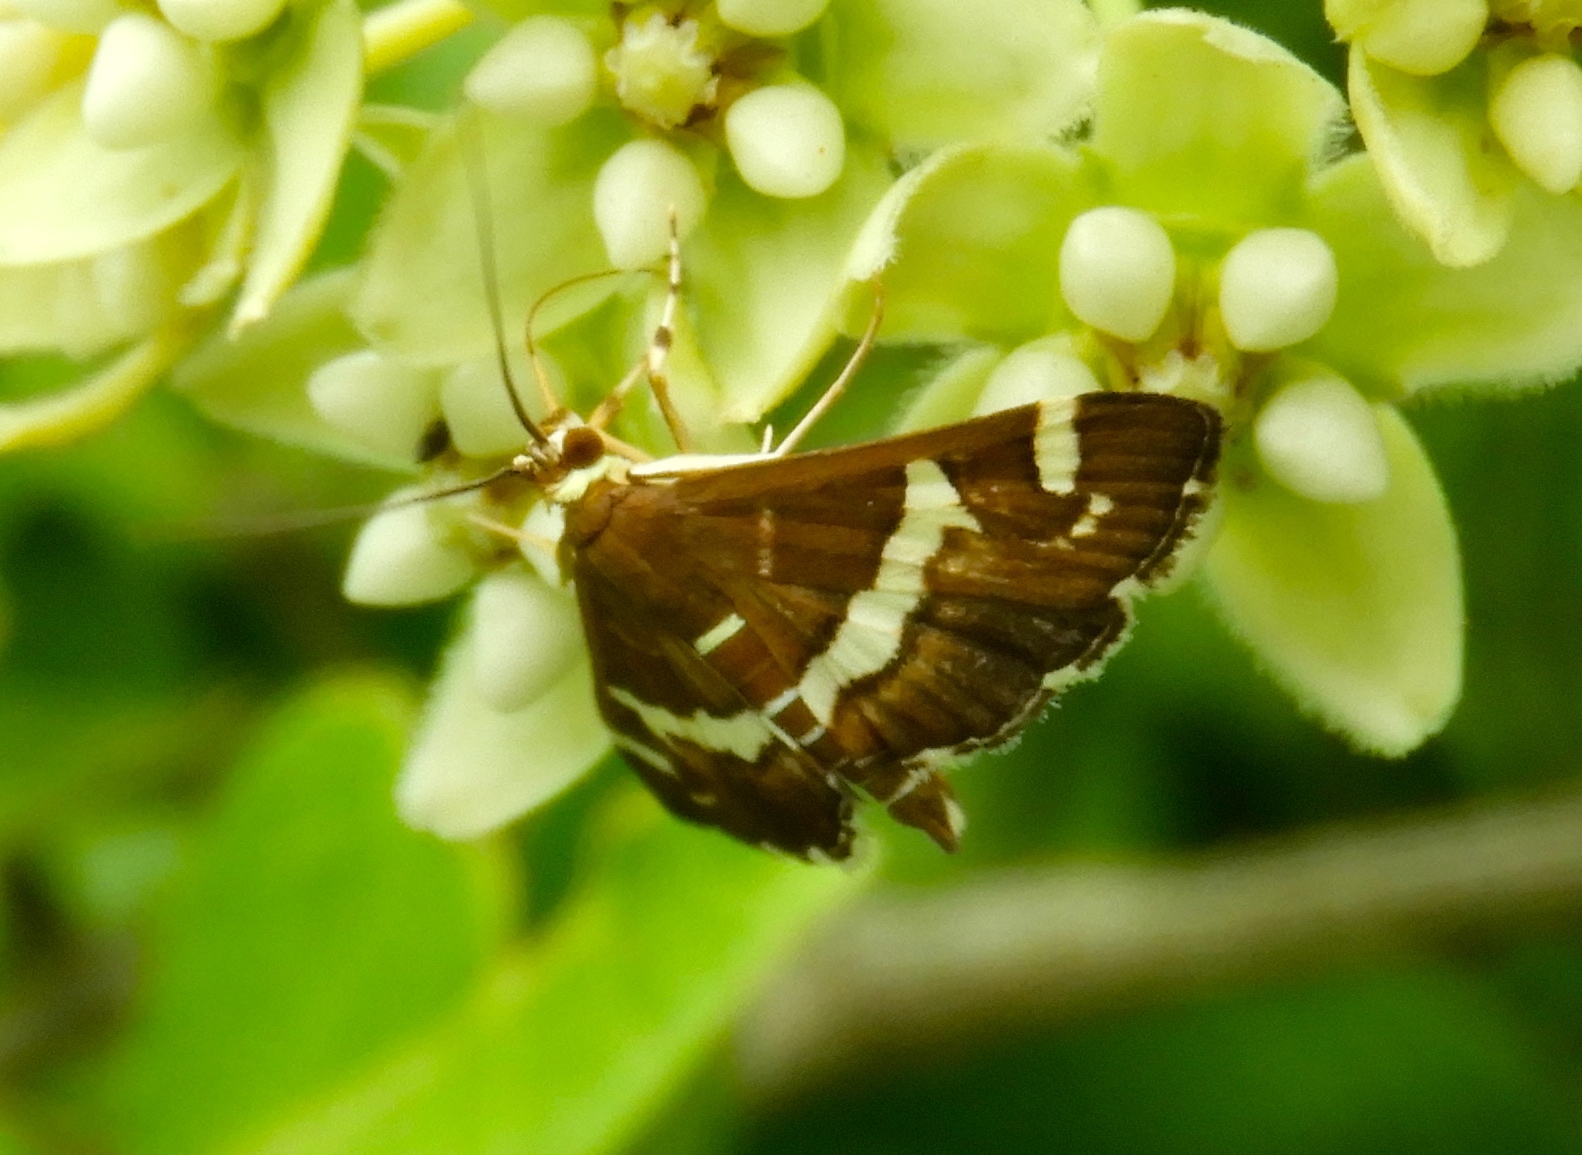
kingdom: Animalia
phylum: Arthropoda
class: Insecta
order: Lepidoptera
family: Crambidae
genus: Spoladea
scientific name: Spoladea recurvalis
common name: Beet webworm moth
